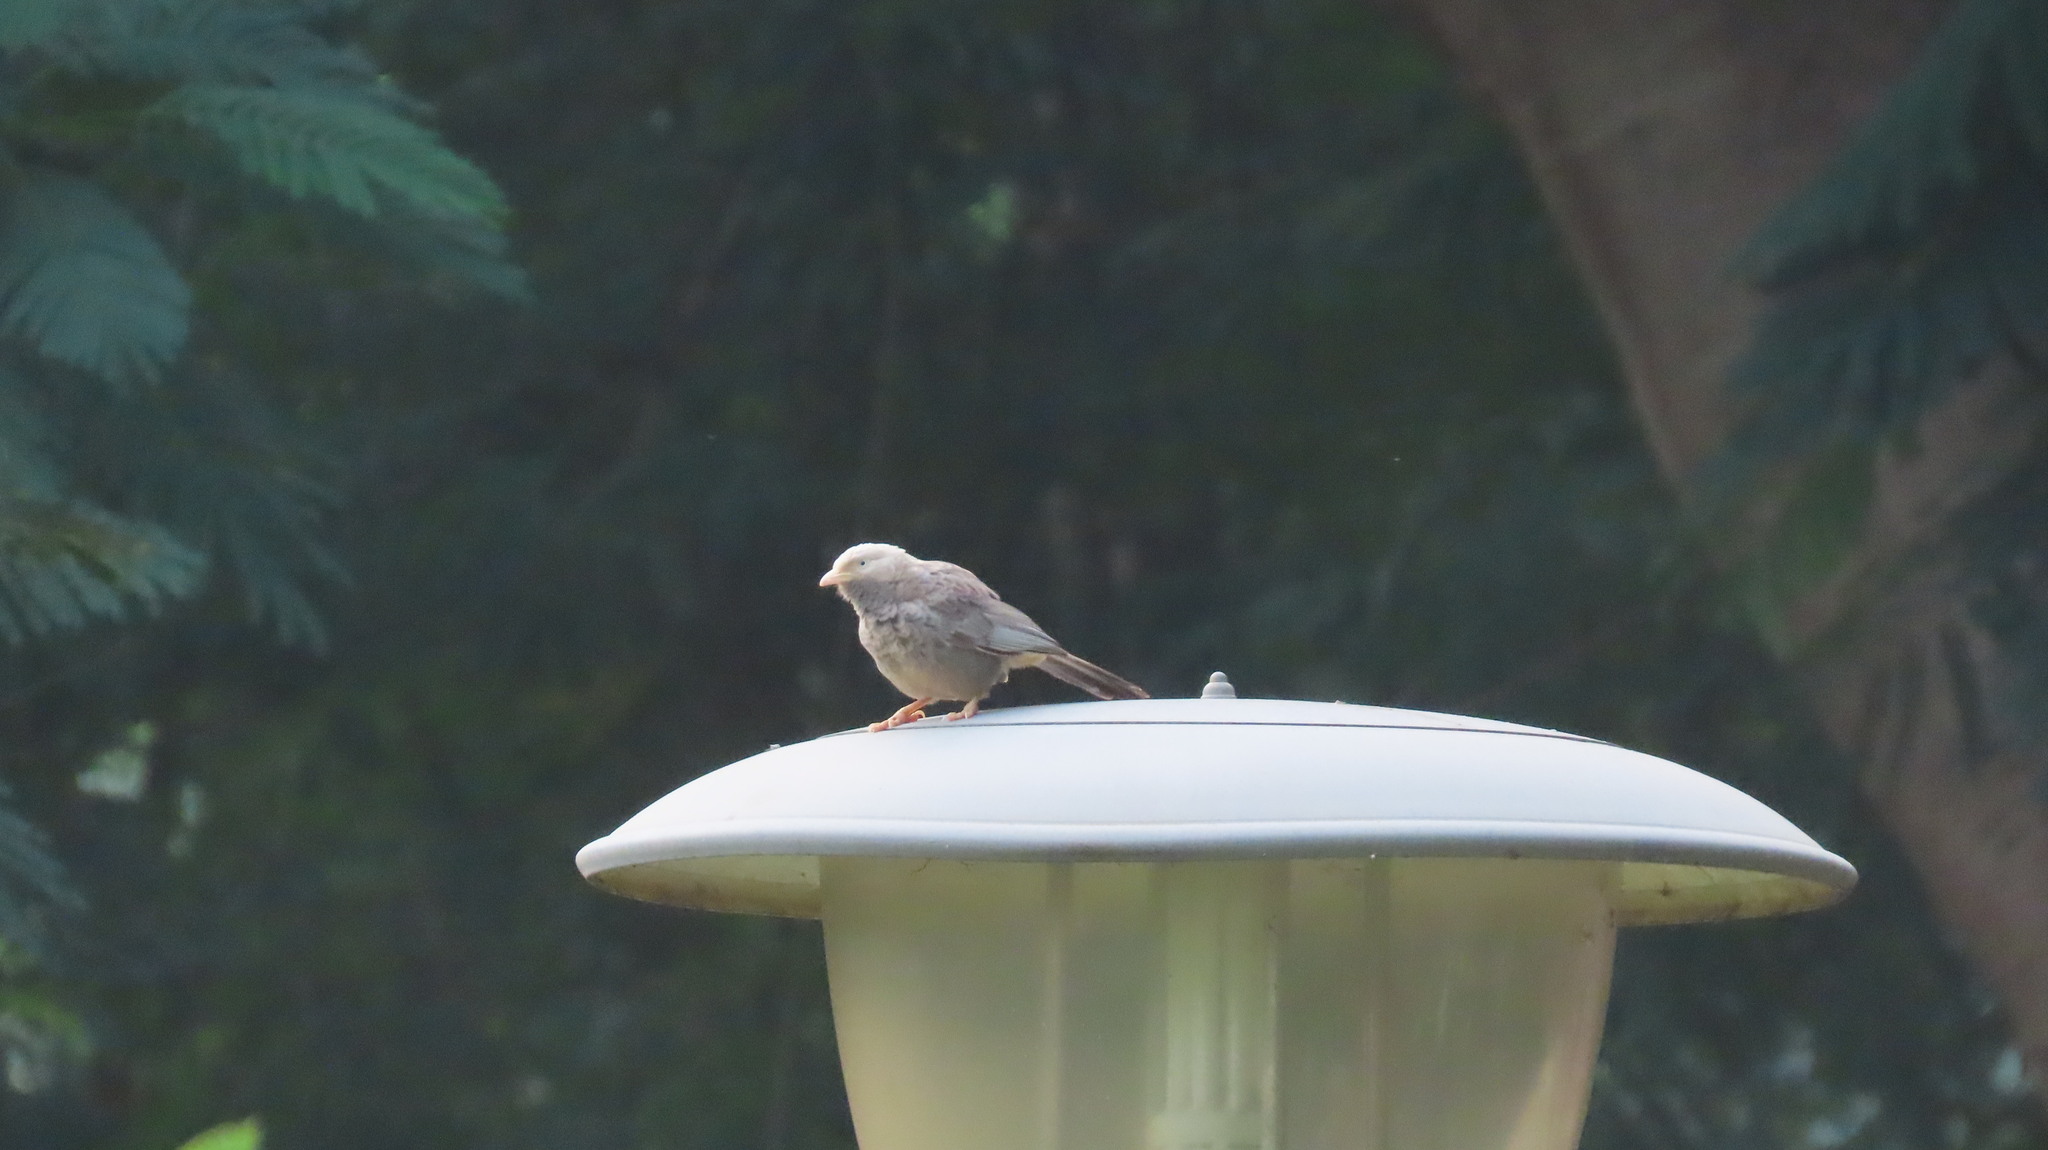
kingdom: Animalia
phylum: Chordata
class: Aves
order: Passeriformes
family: Leiothrichidae
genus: Turdoides
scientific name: Turdoides affinis
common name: Yellow-billed babbler
